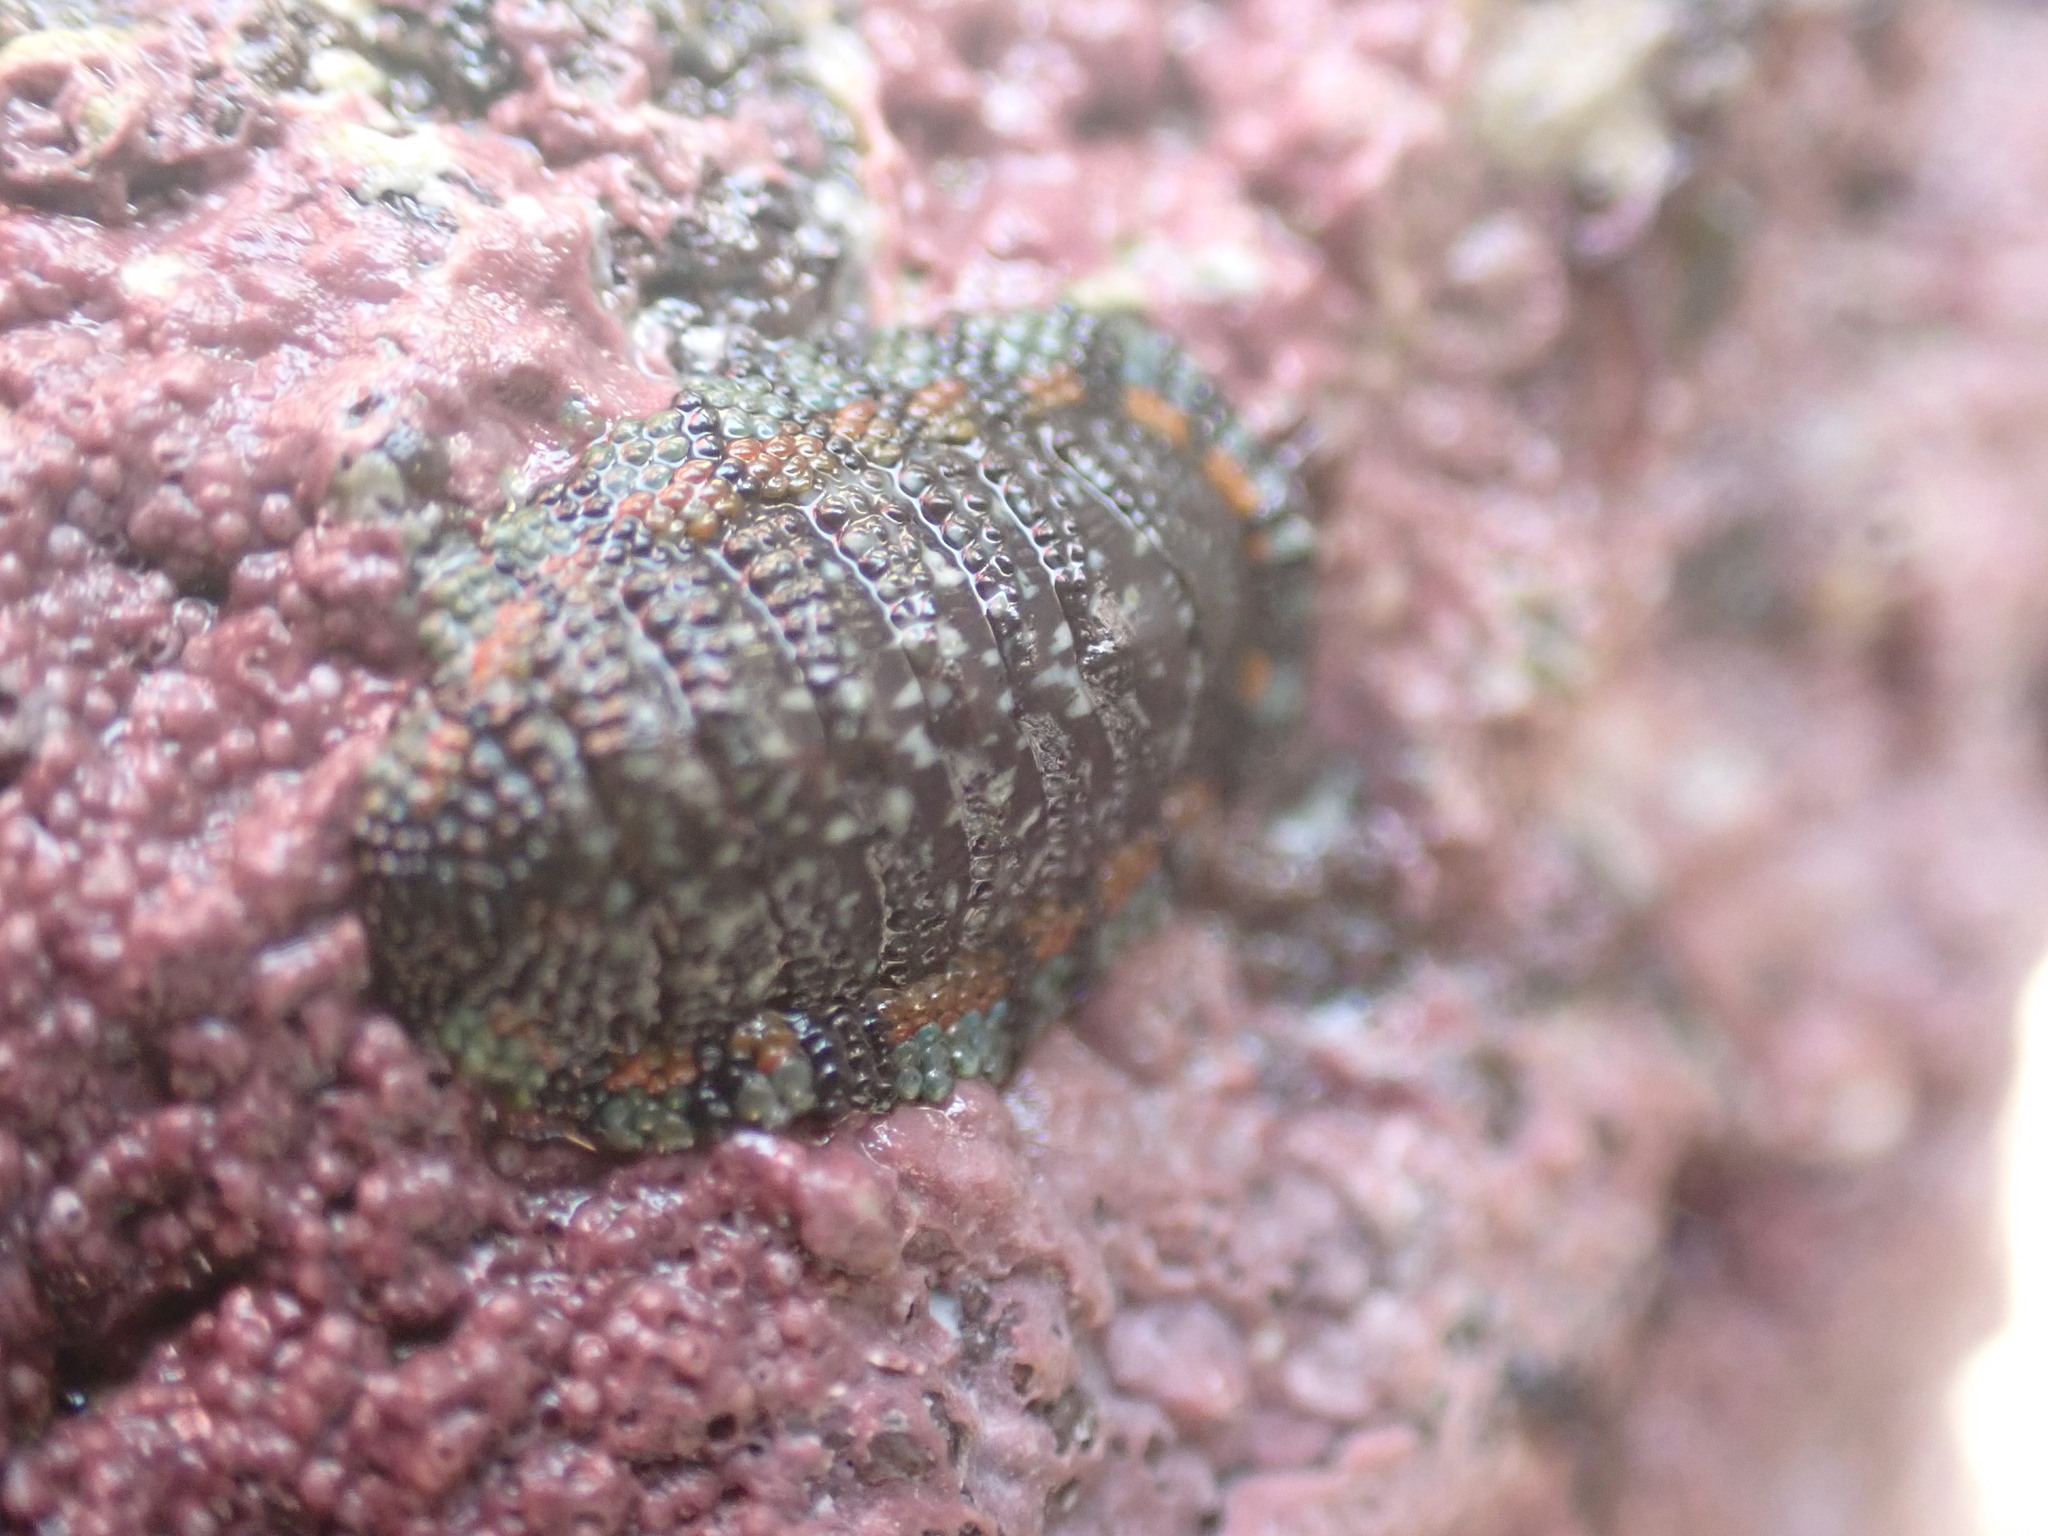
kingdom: Animalia
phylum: Mollusca
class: Polyplacophora
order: Chitonida
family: Chitonidae
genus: Sypharochiton
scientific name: Sypharochiton sinclairi
